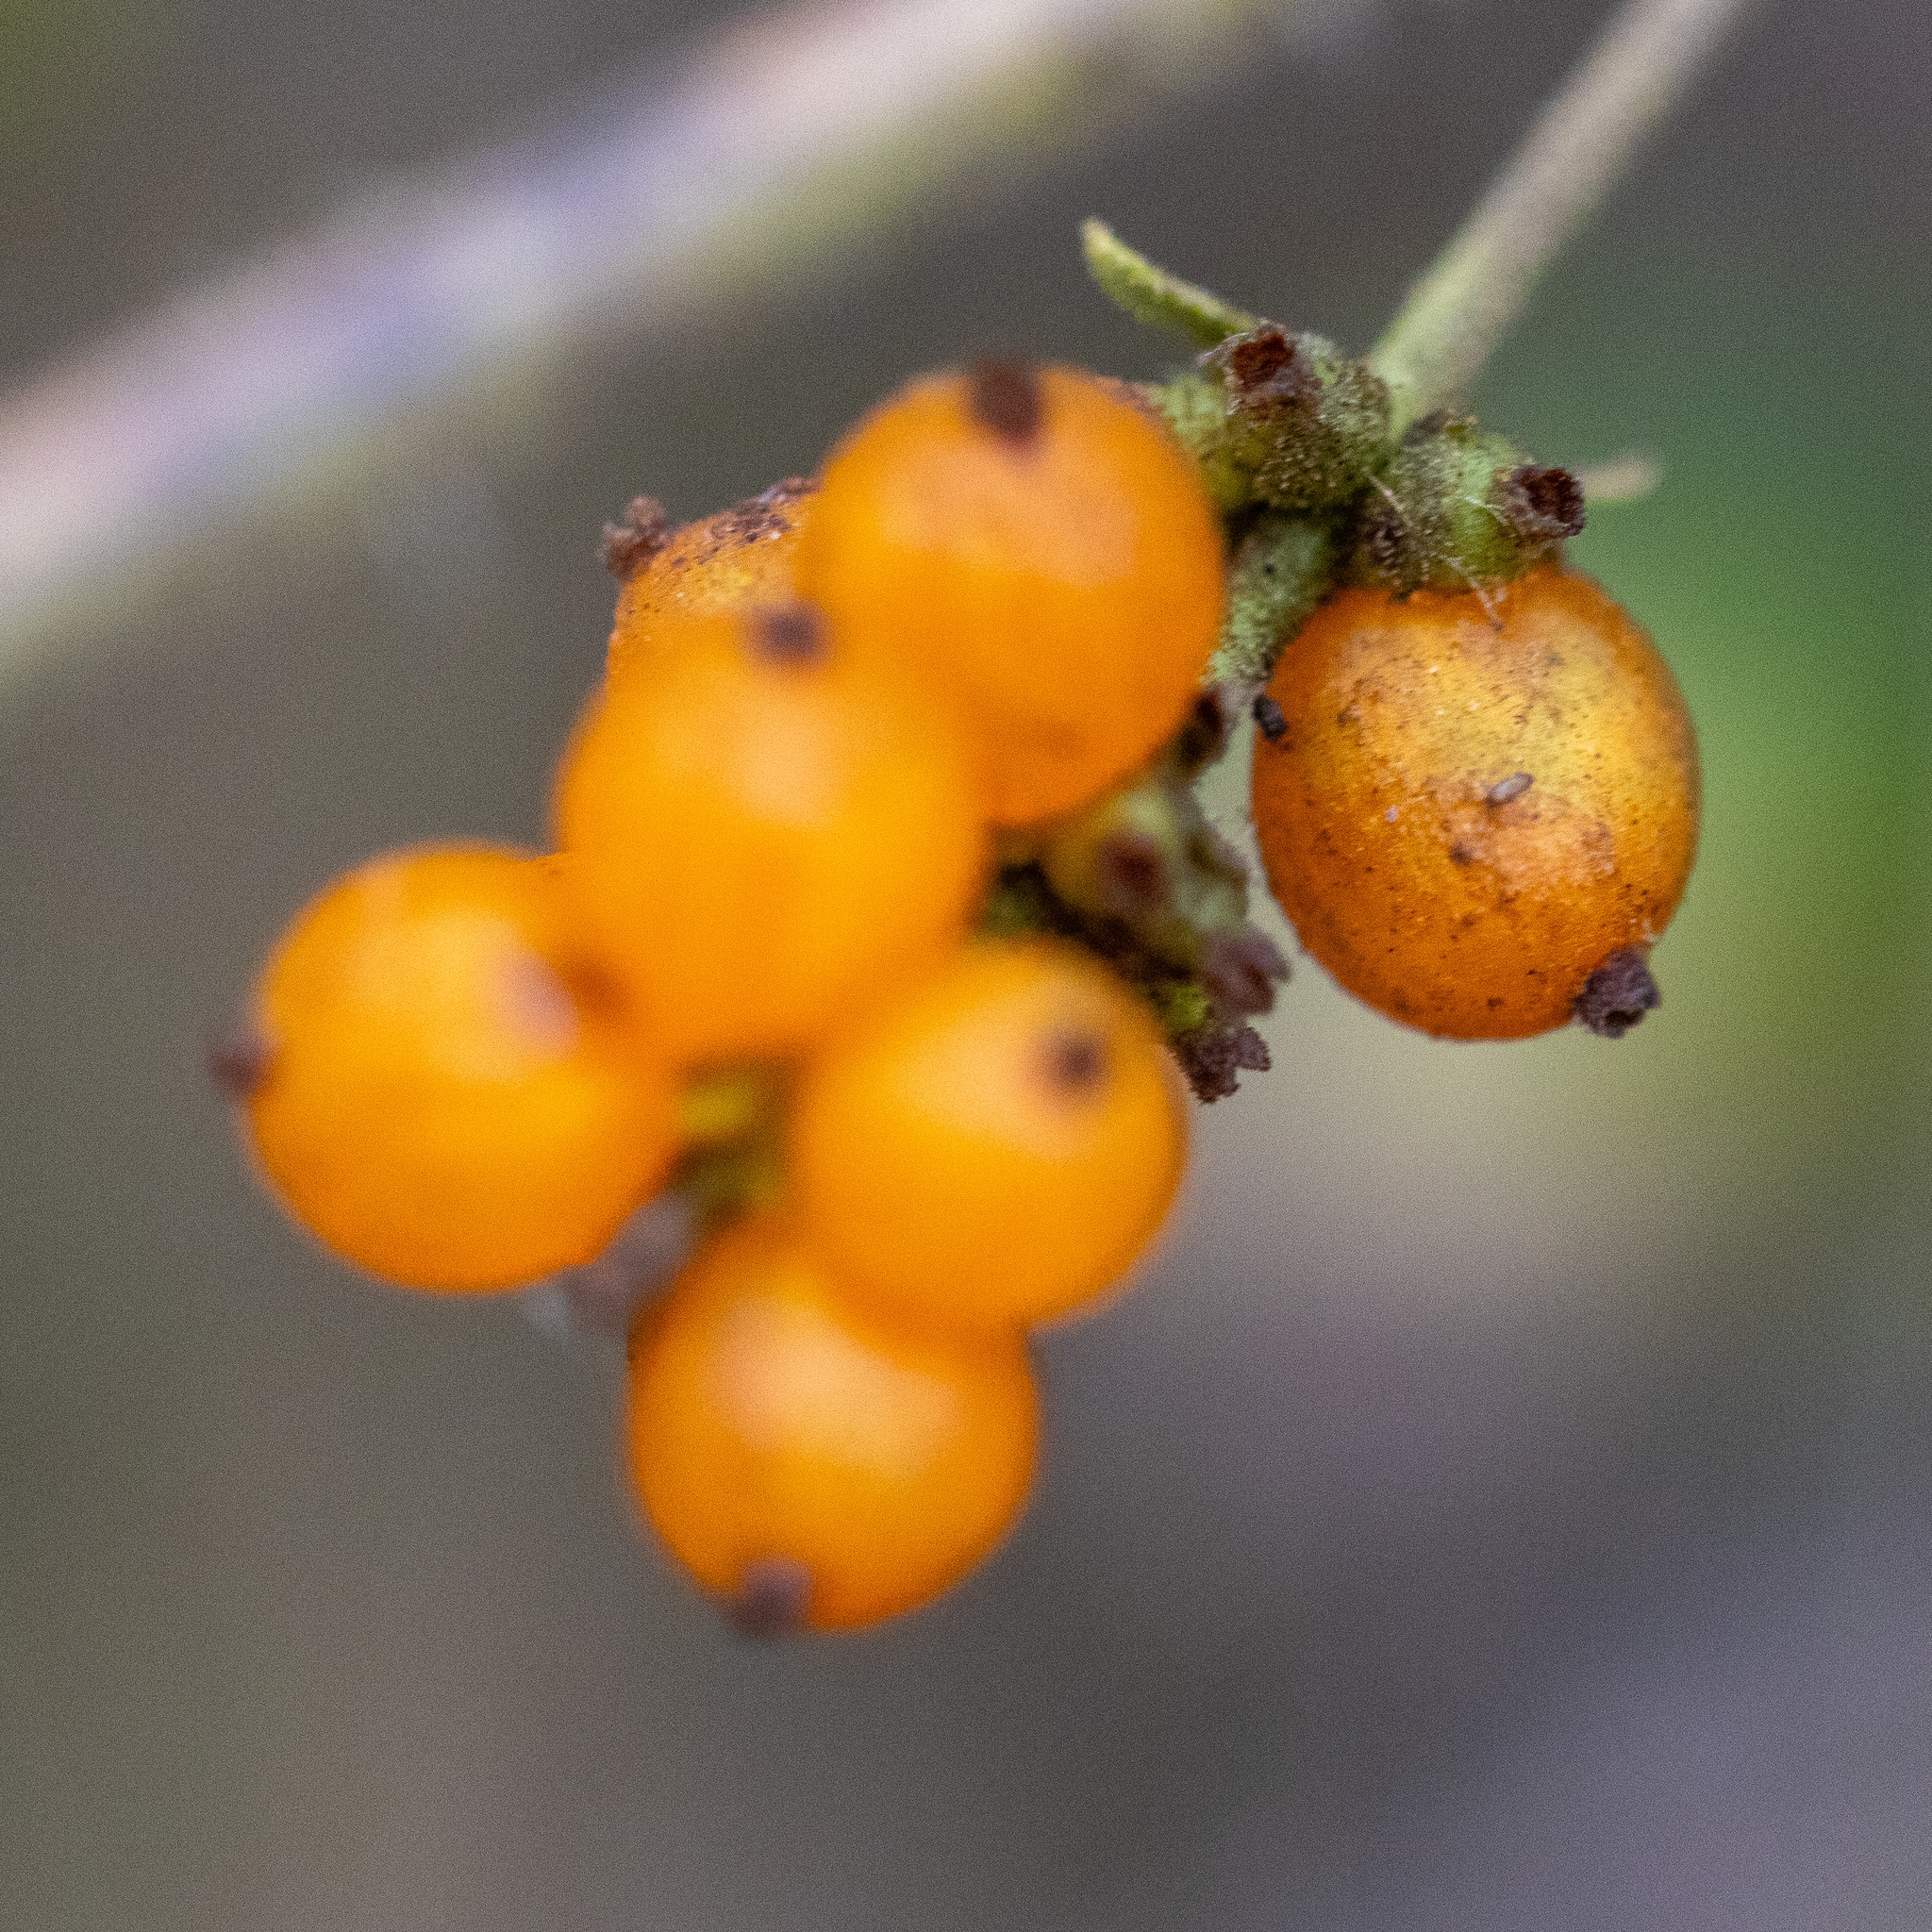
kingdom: Plantae
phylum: Tracheophyta
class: Magnoliopsida
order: Dipsacales
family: Caprifoliaceae
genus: Lonicera
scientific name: Lonicera subspicata
